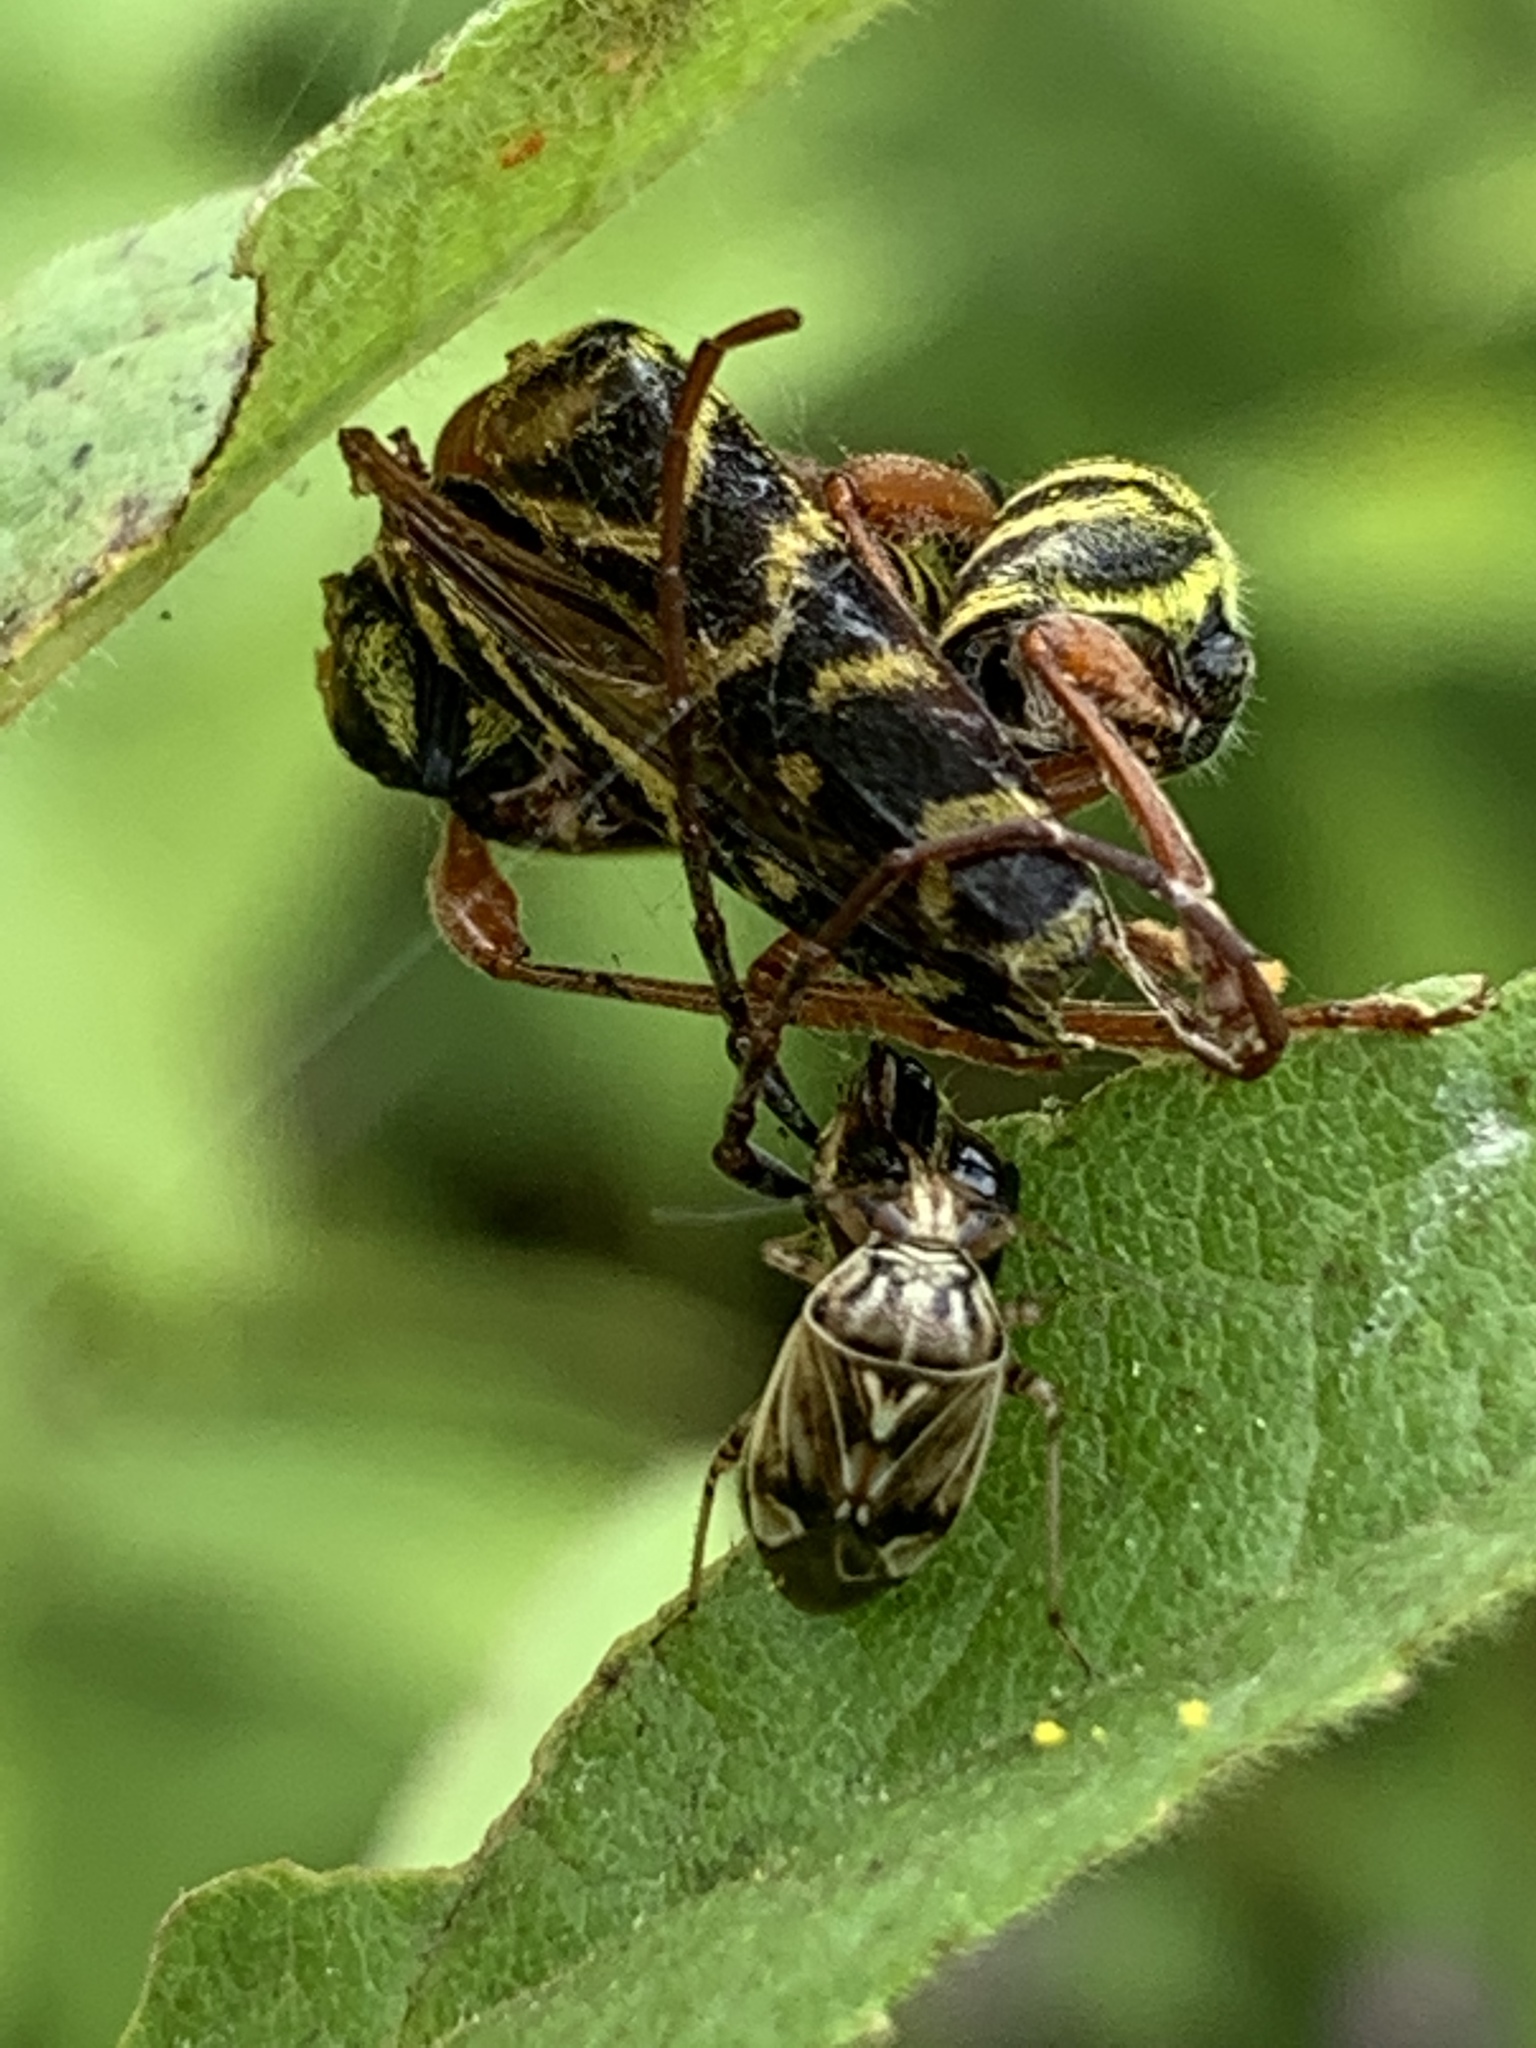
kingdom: Animalia
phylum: Arthropoda
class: Insecta
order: Hemiptera
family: Miridae
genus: Lygus
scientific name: Lygus lineolaris
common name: North american tarnished plant bug
